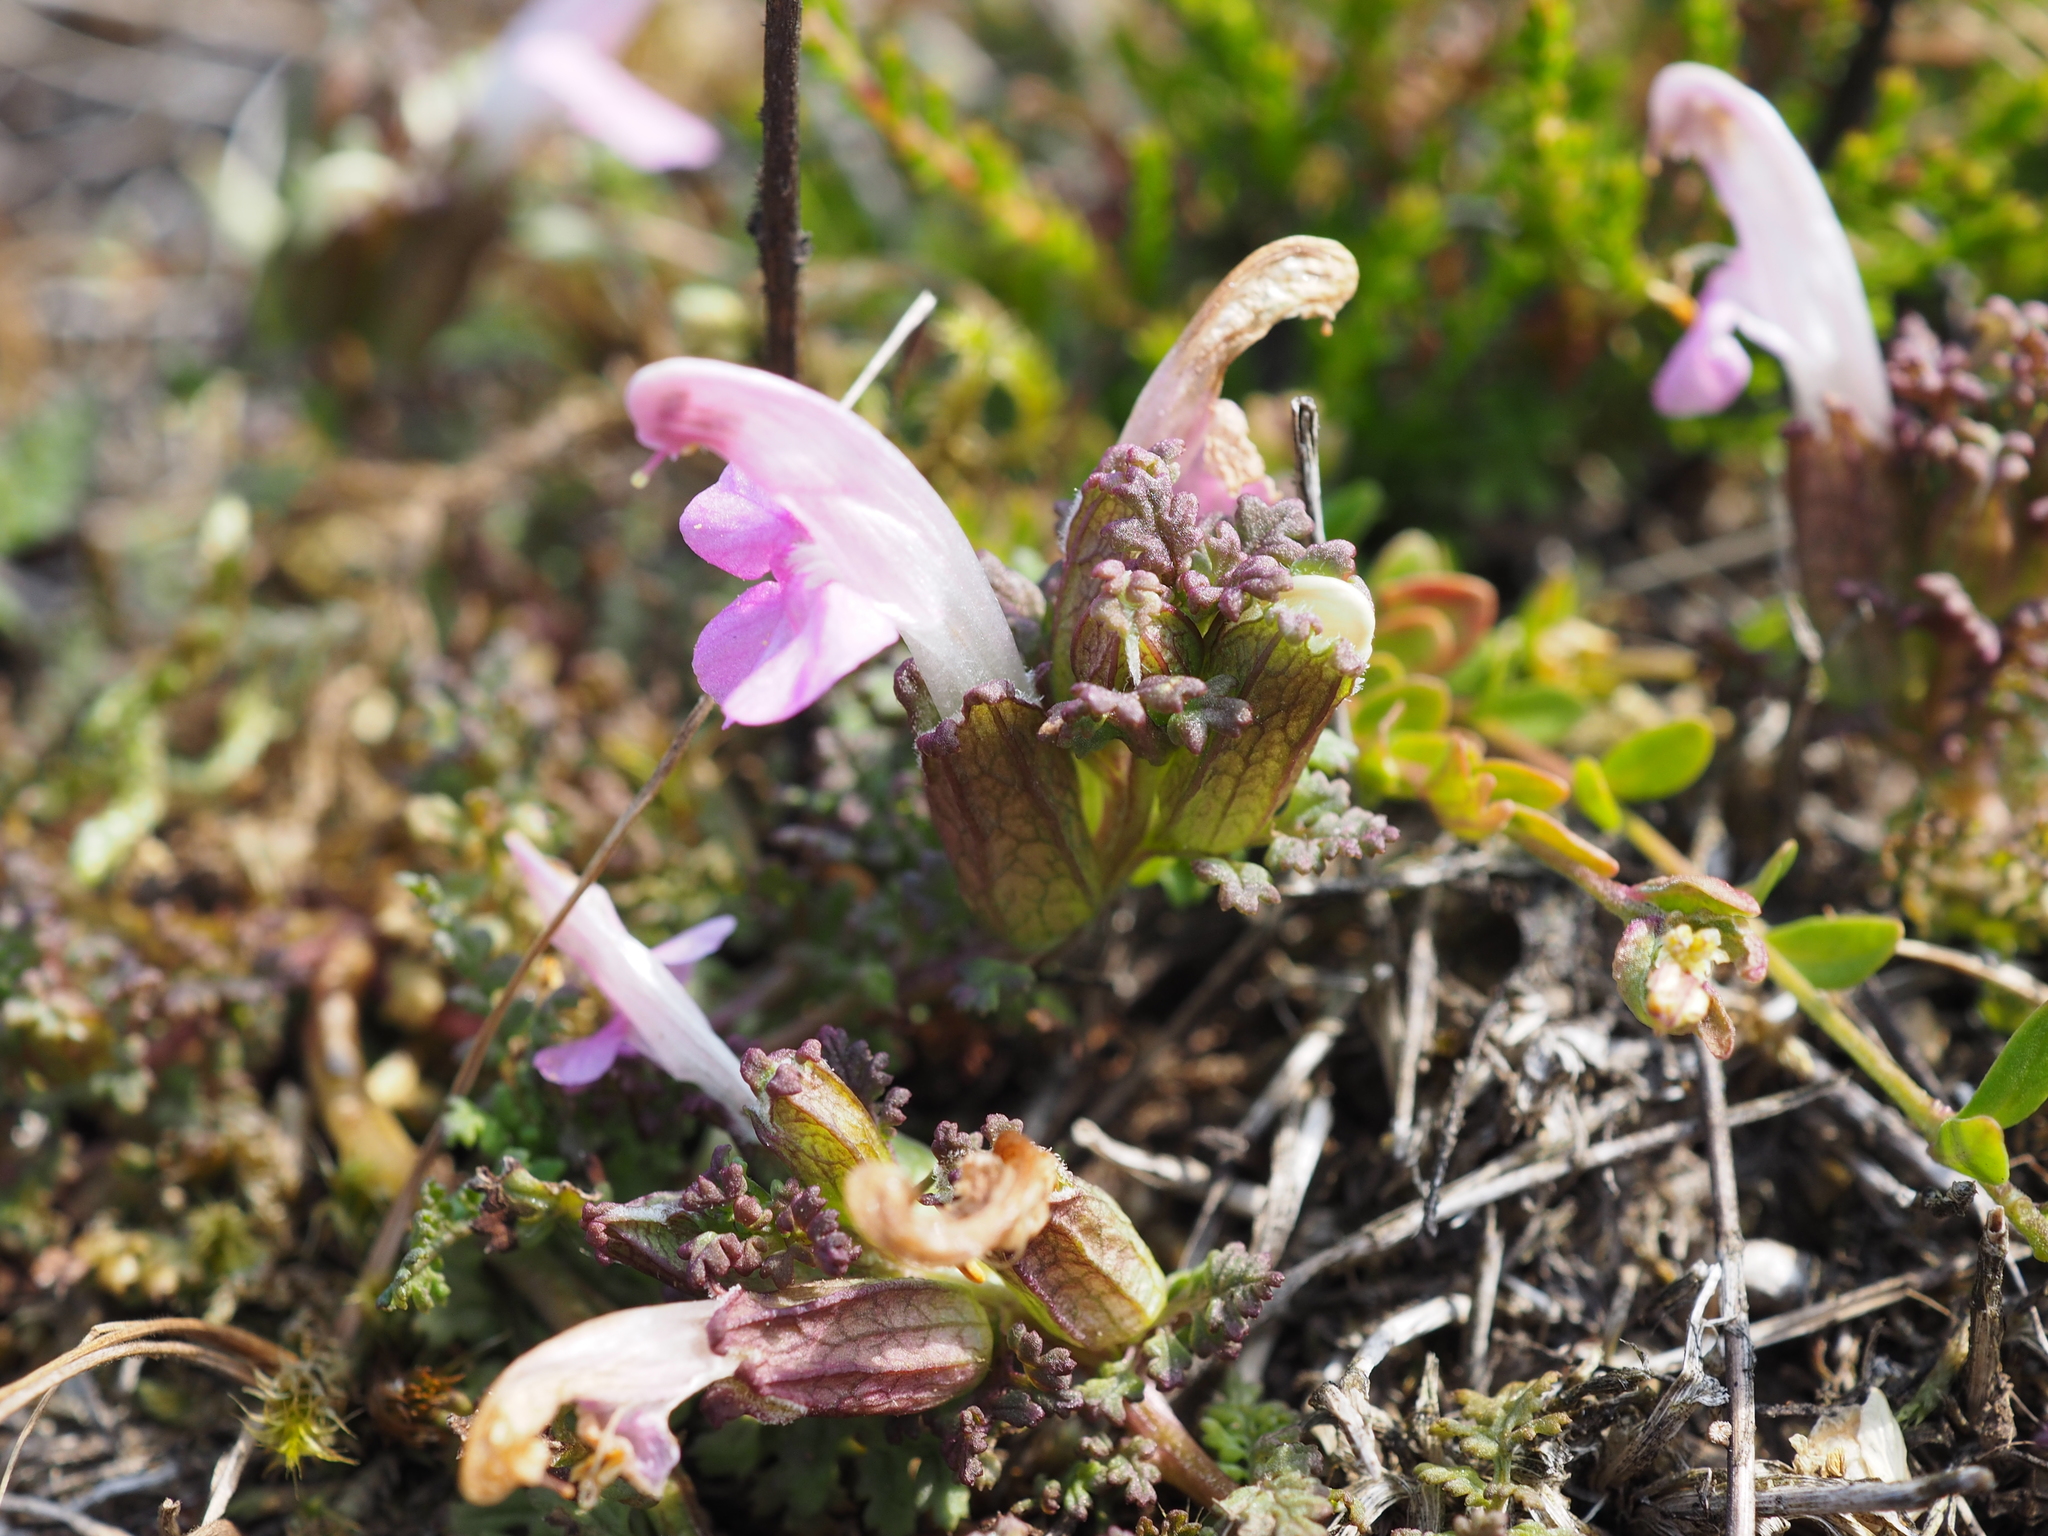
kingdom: Plantae
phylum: Tracheophyta
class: Magnoliopsida
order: Lamiales
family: Orobanchaceae
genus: Pedicularis
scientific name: Pedicularis sylvatica
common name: Lousewort
